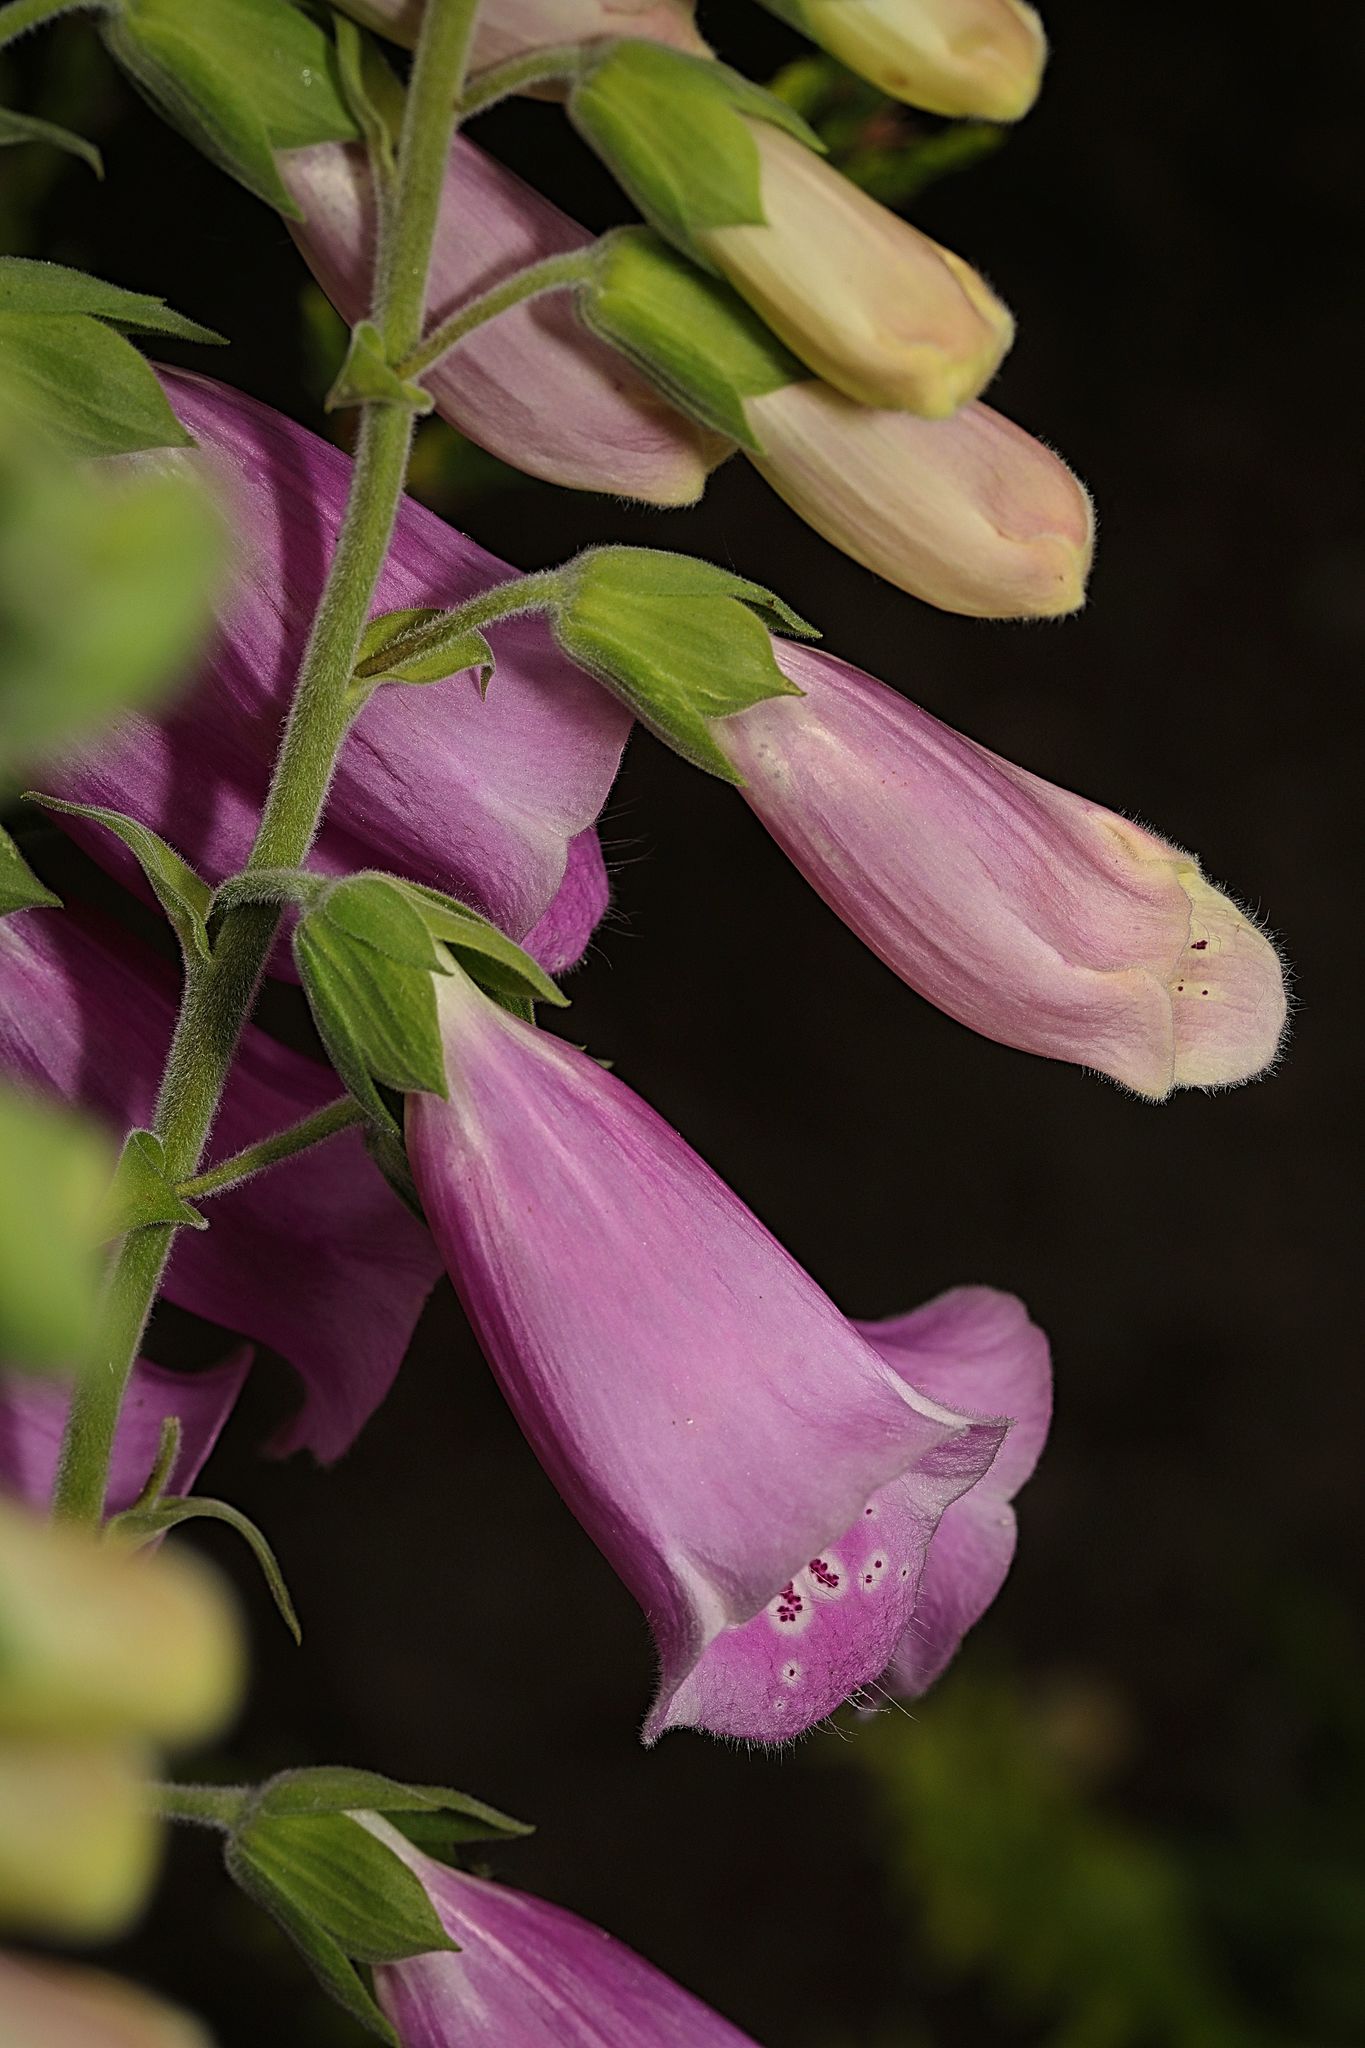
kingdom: Plantae
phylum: Tracheophyta
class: Magnoliopsida
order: Lamiales
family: Plantaginaceae
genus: Digitalis
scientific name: Digitalis purpurea
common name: Foxglove
